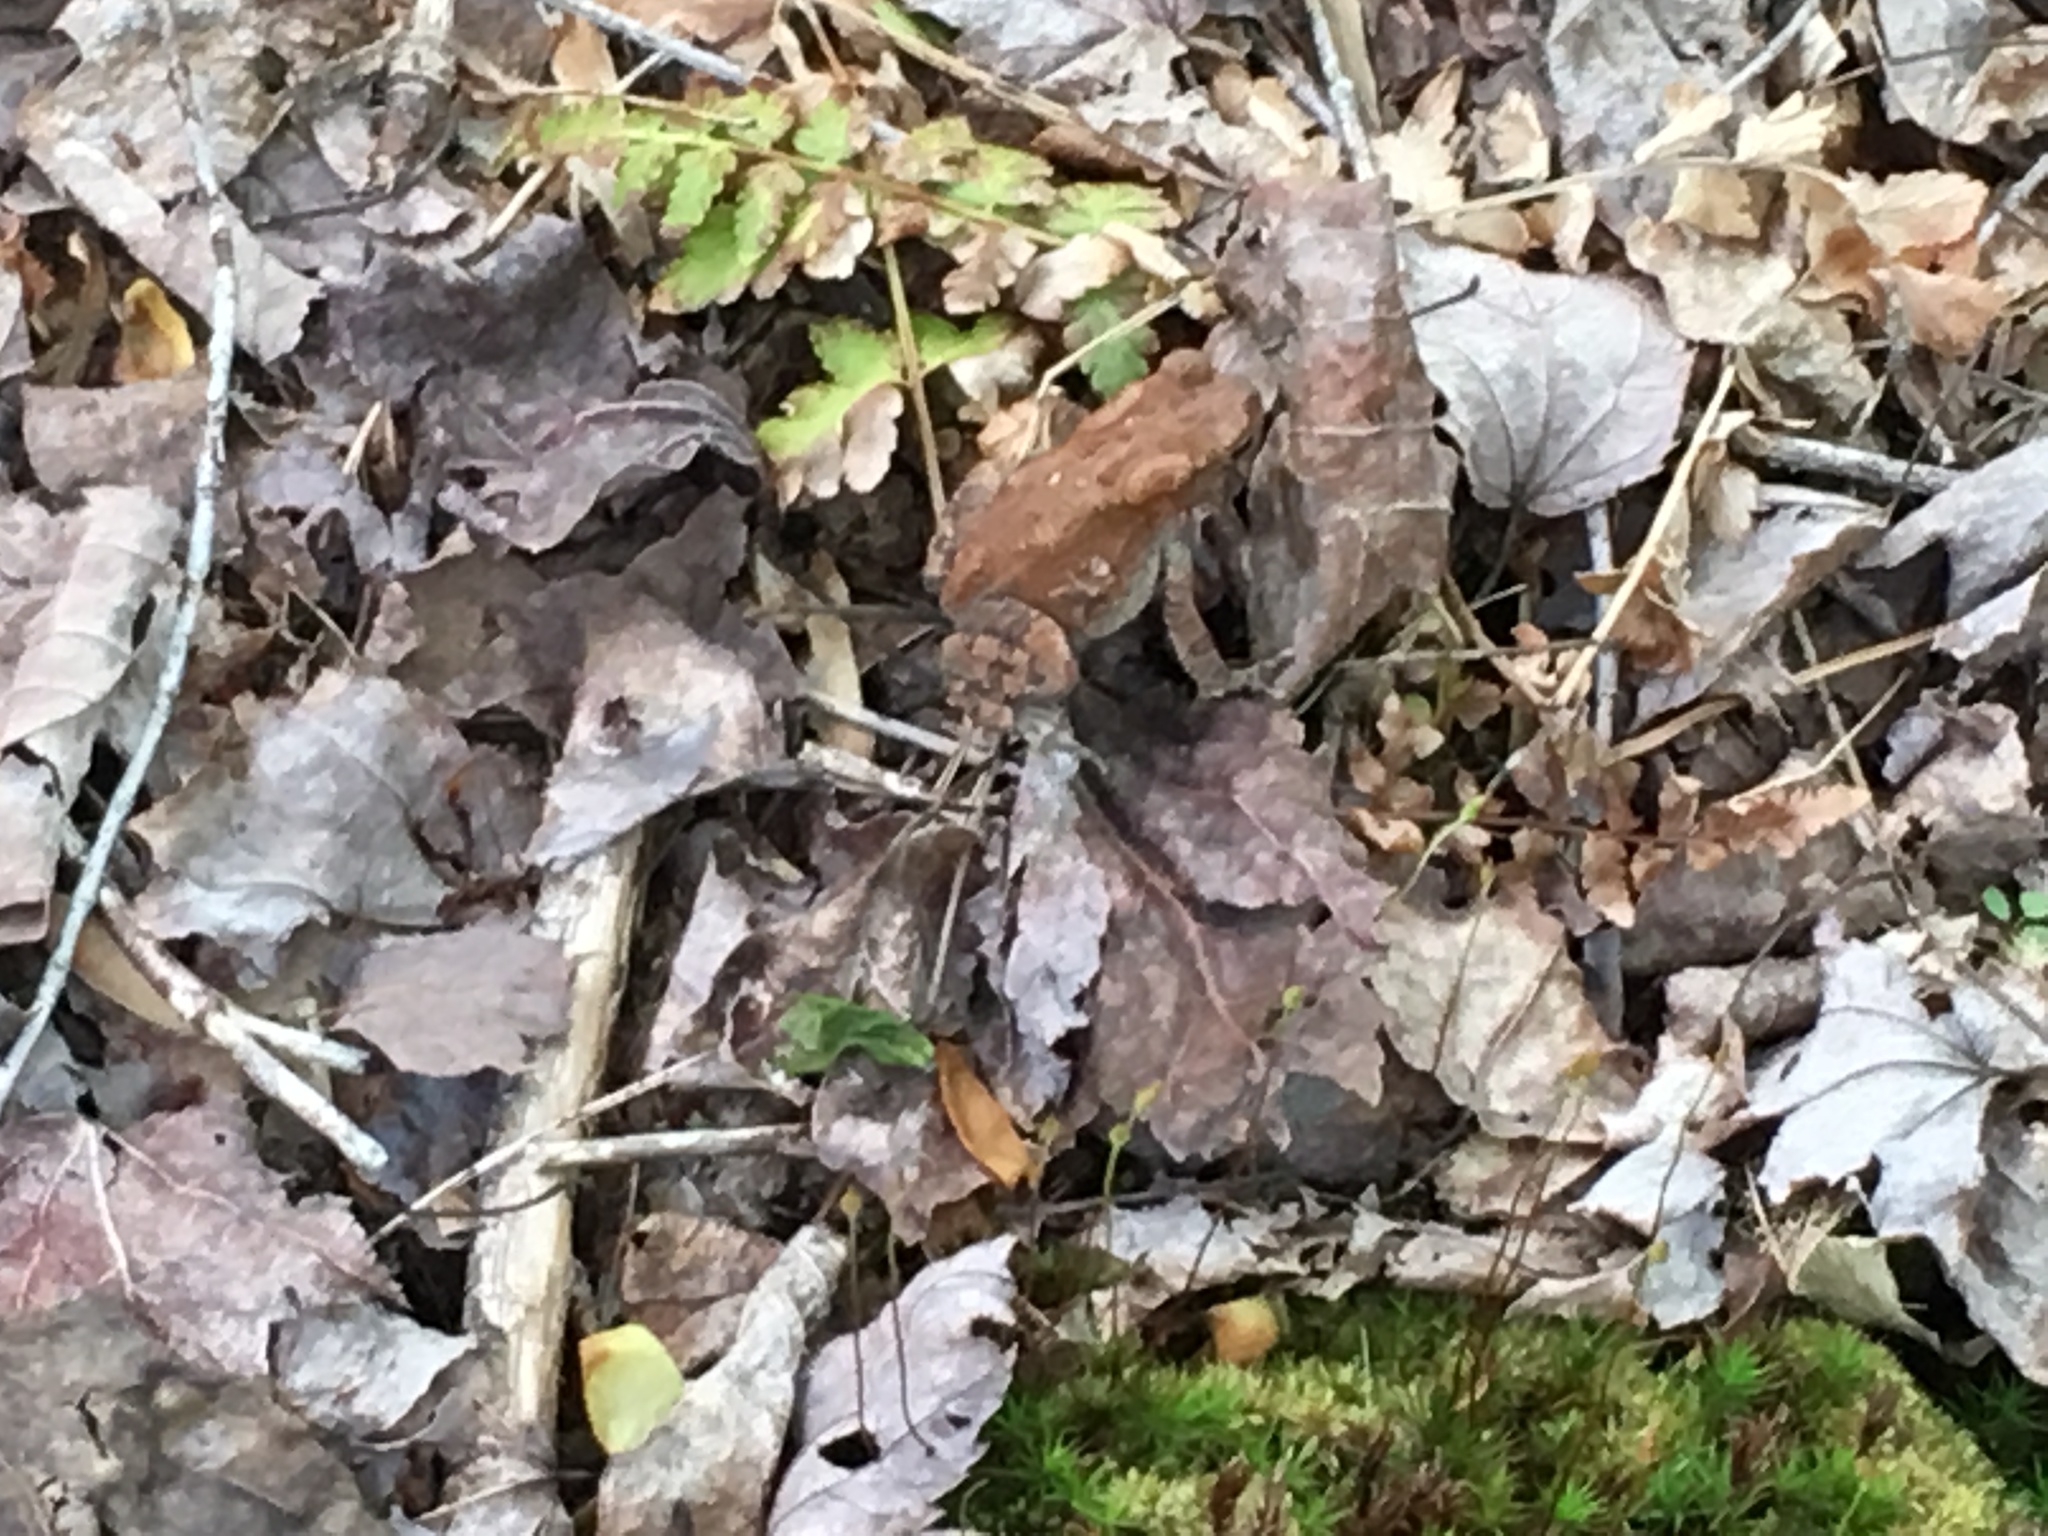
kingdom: Animalia
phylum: Chordata
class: Amphibia
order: Anura
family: Bufonidae
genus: Anaxyrus
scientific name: Anaxyrus americanus
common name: American toad
